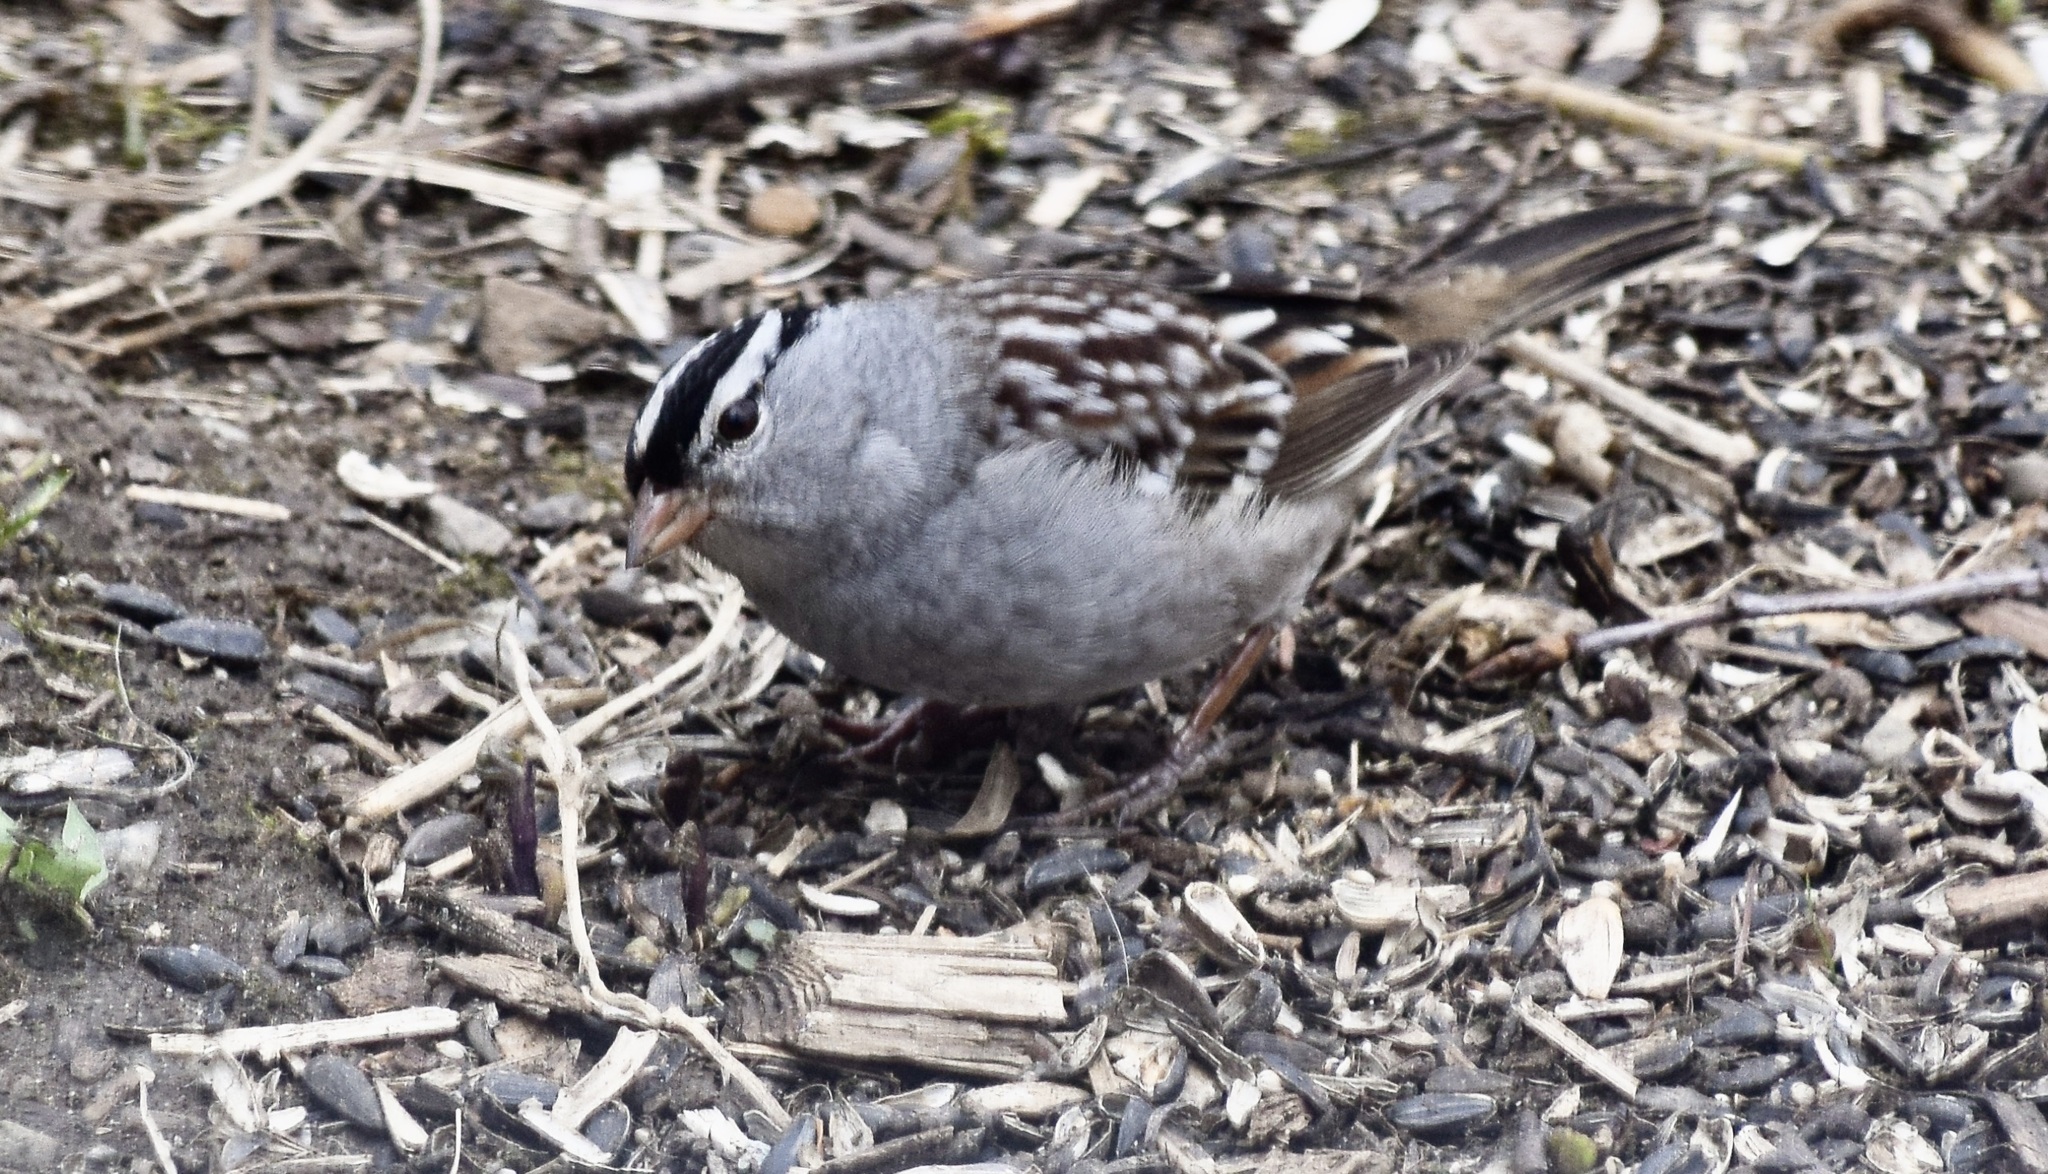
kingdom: Animalia
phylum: Chordata
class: Aves
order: Passeriformes
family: Passerellidae
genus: Zonotrichia
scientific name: Zonotrichia leucophrys
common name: White-crowned sparrow
